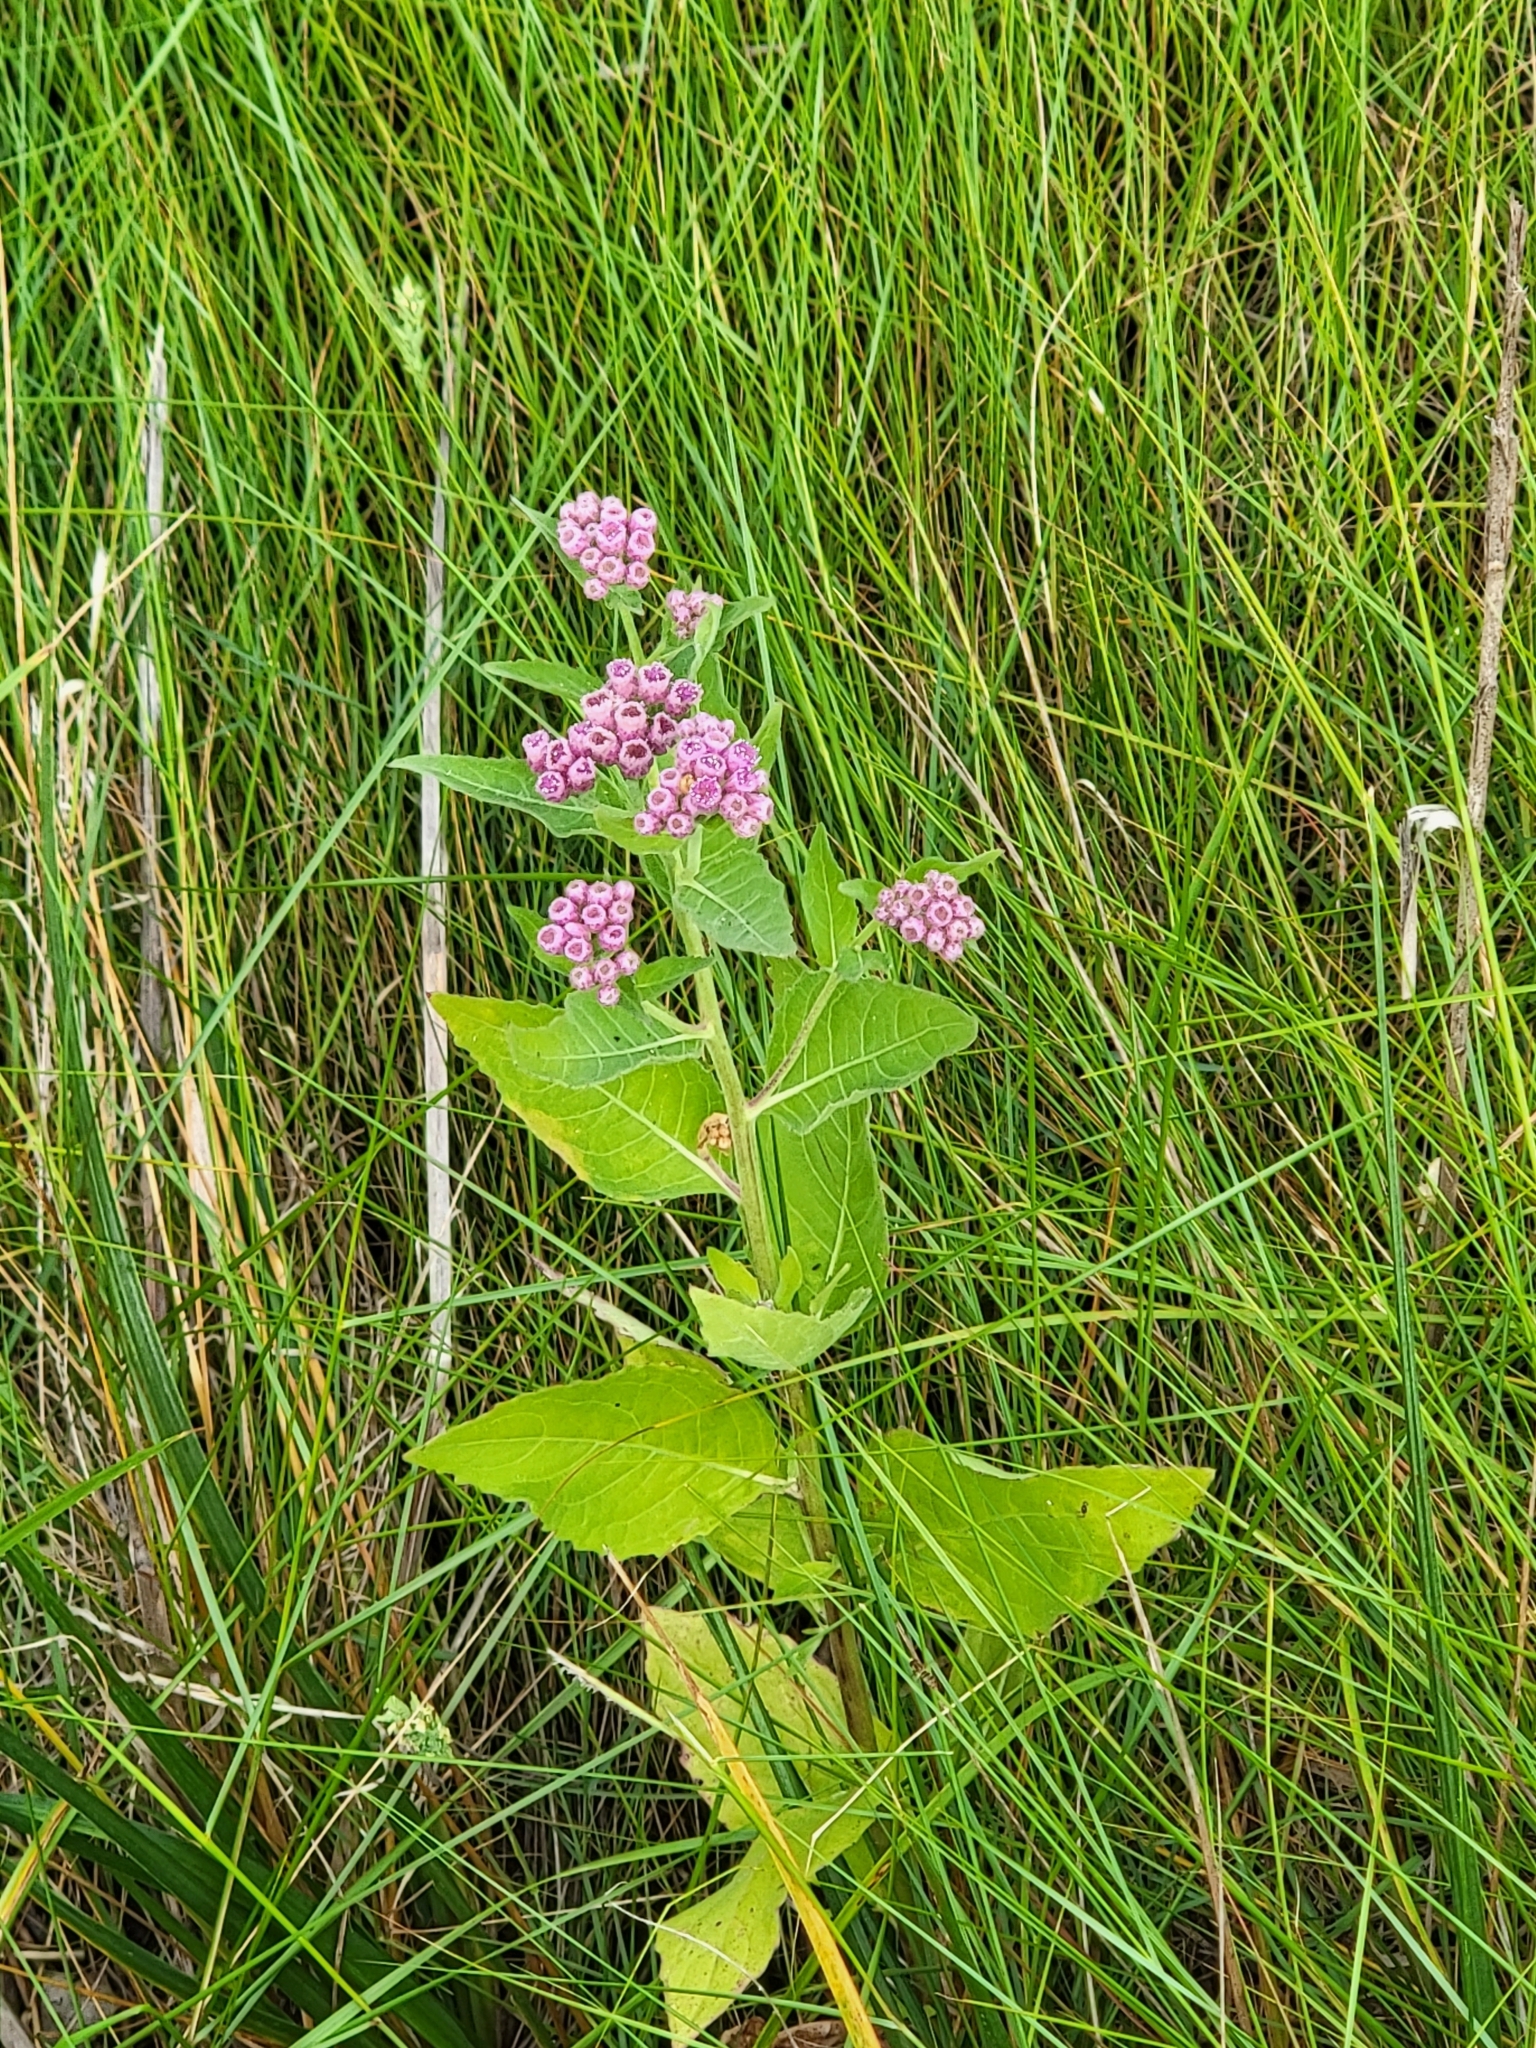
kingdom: Plantae
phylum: Tracheophyta
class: Magnoliopsida
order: Asterales
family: Asteraceae
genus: Pluchea
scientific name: Pluchea odorata
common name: Saltmarsh fleabane
